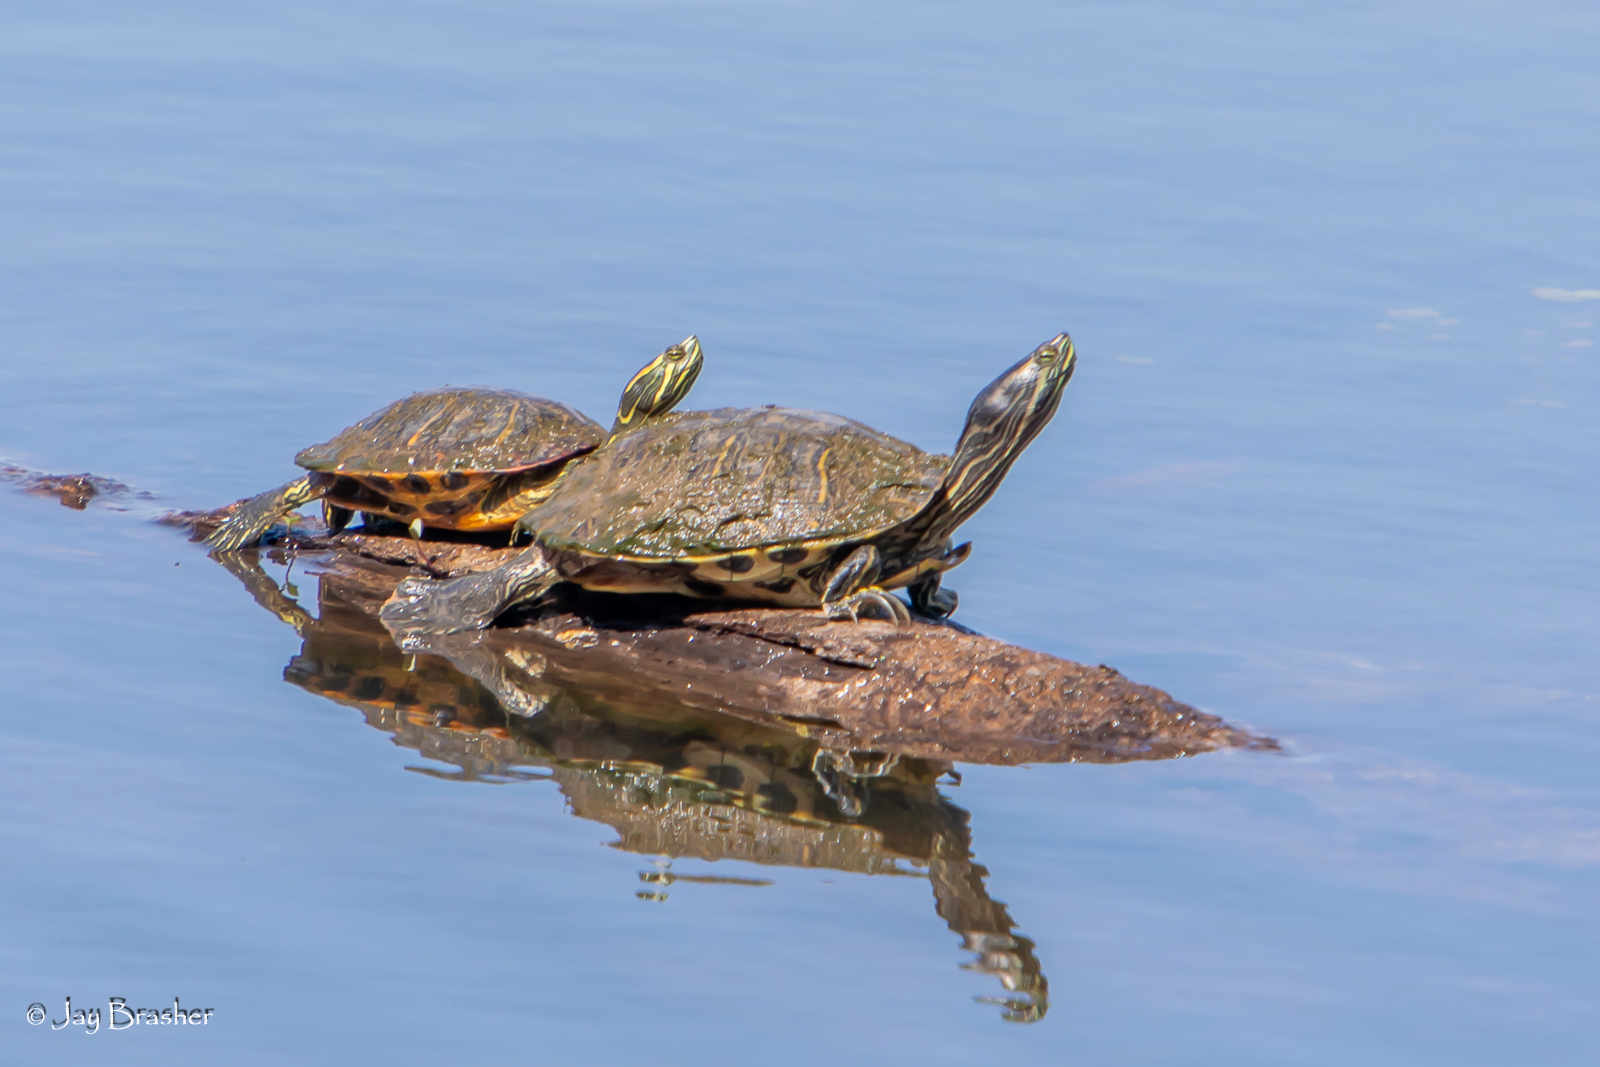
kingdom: Animalia
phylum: Chordata
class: Testudines
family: Emydidae
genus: Trachemys
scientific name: Trachemys scripta
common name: Slider
